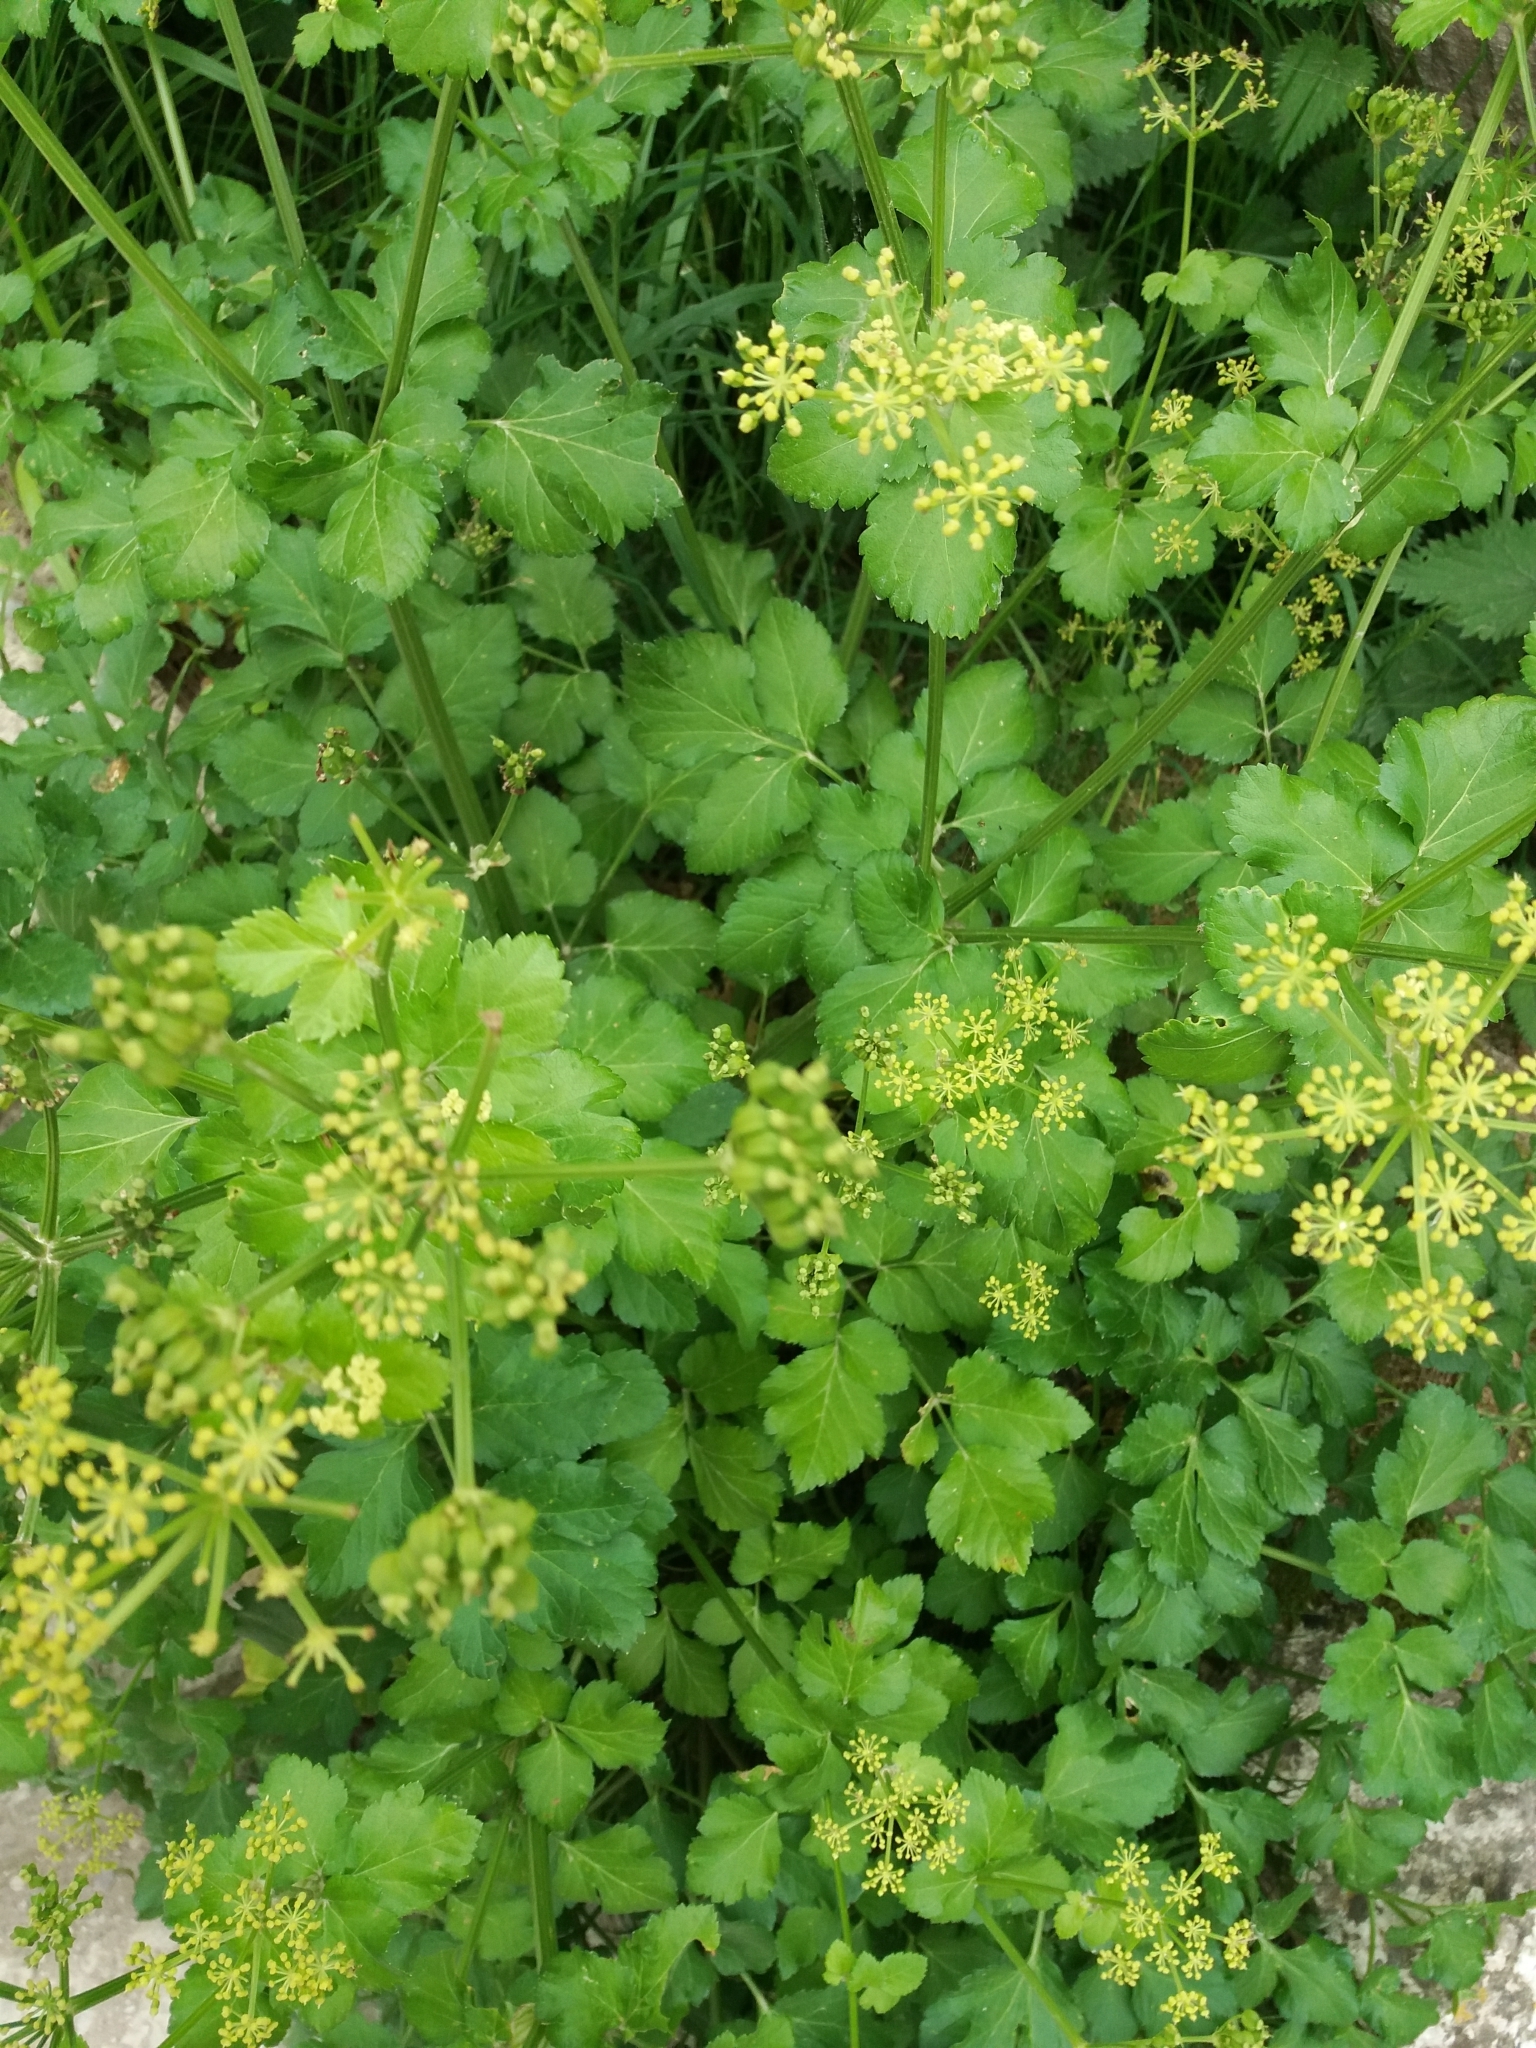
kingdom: Plantae
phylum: Tracheophyta
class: Magnoliopsida
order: Apiales
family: Apiaceae
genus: Smyrnium
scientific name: Smyrnium olusatrum
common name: Alexanders
